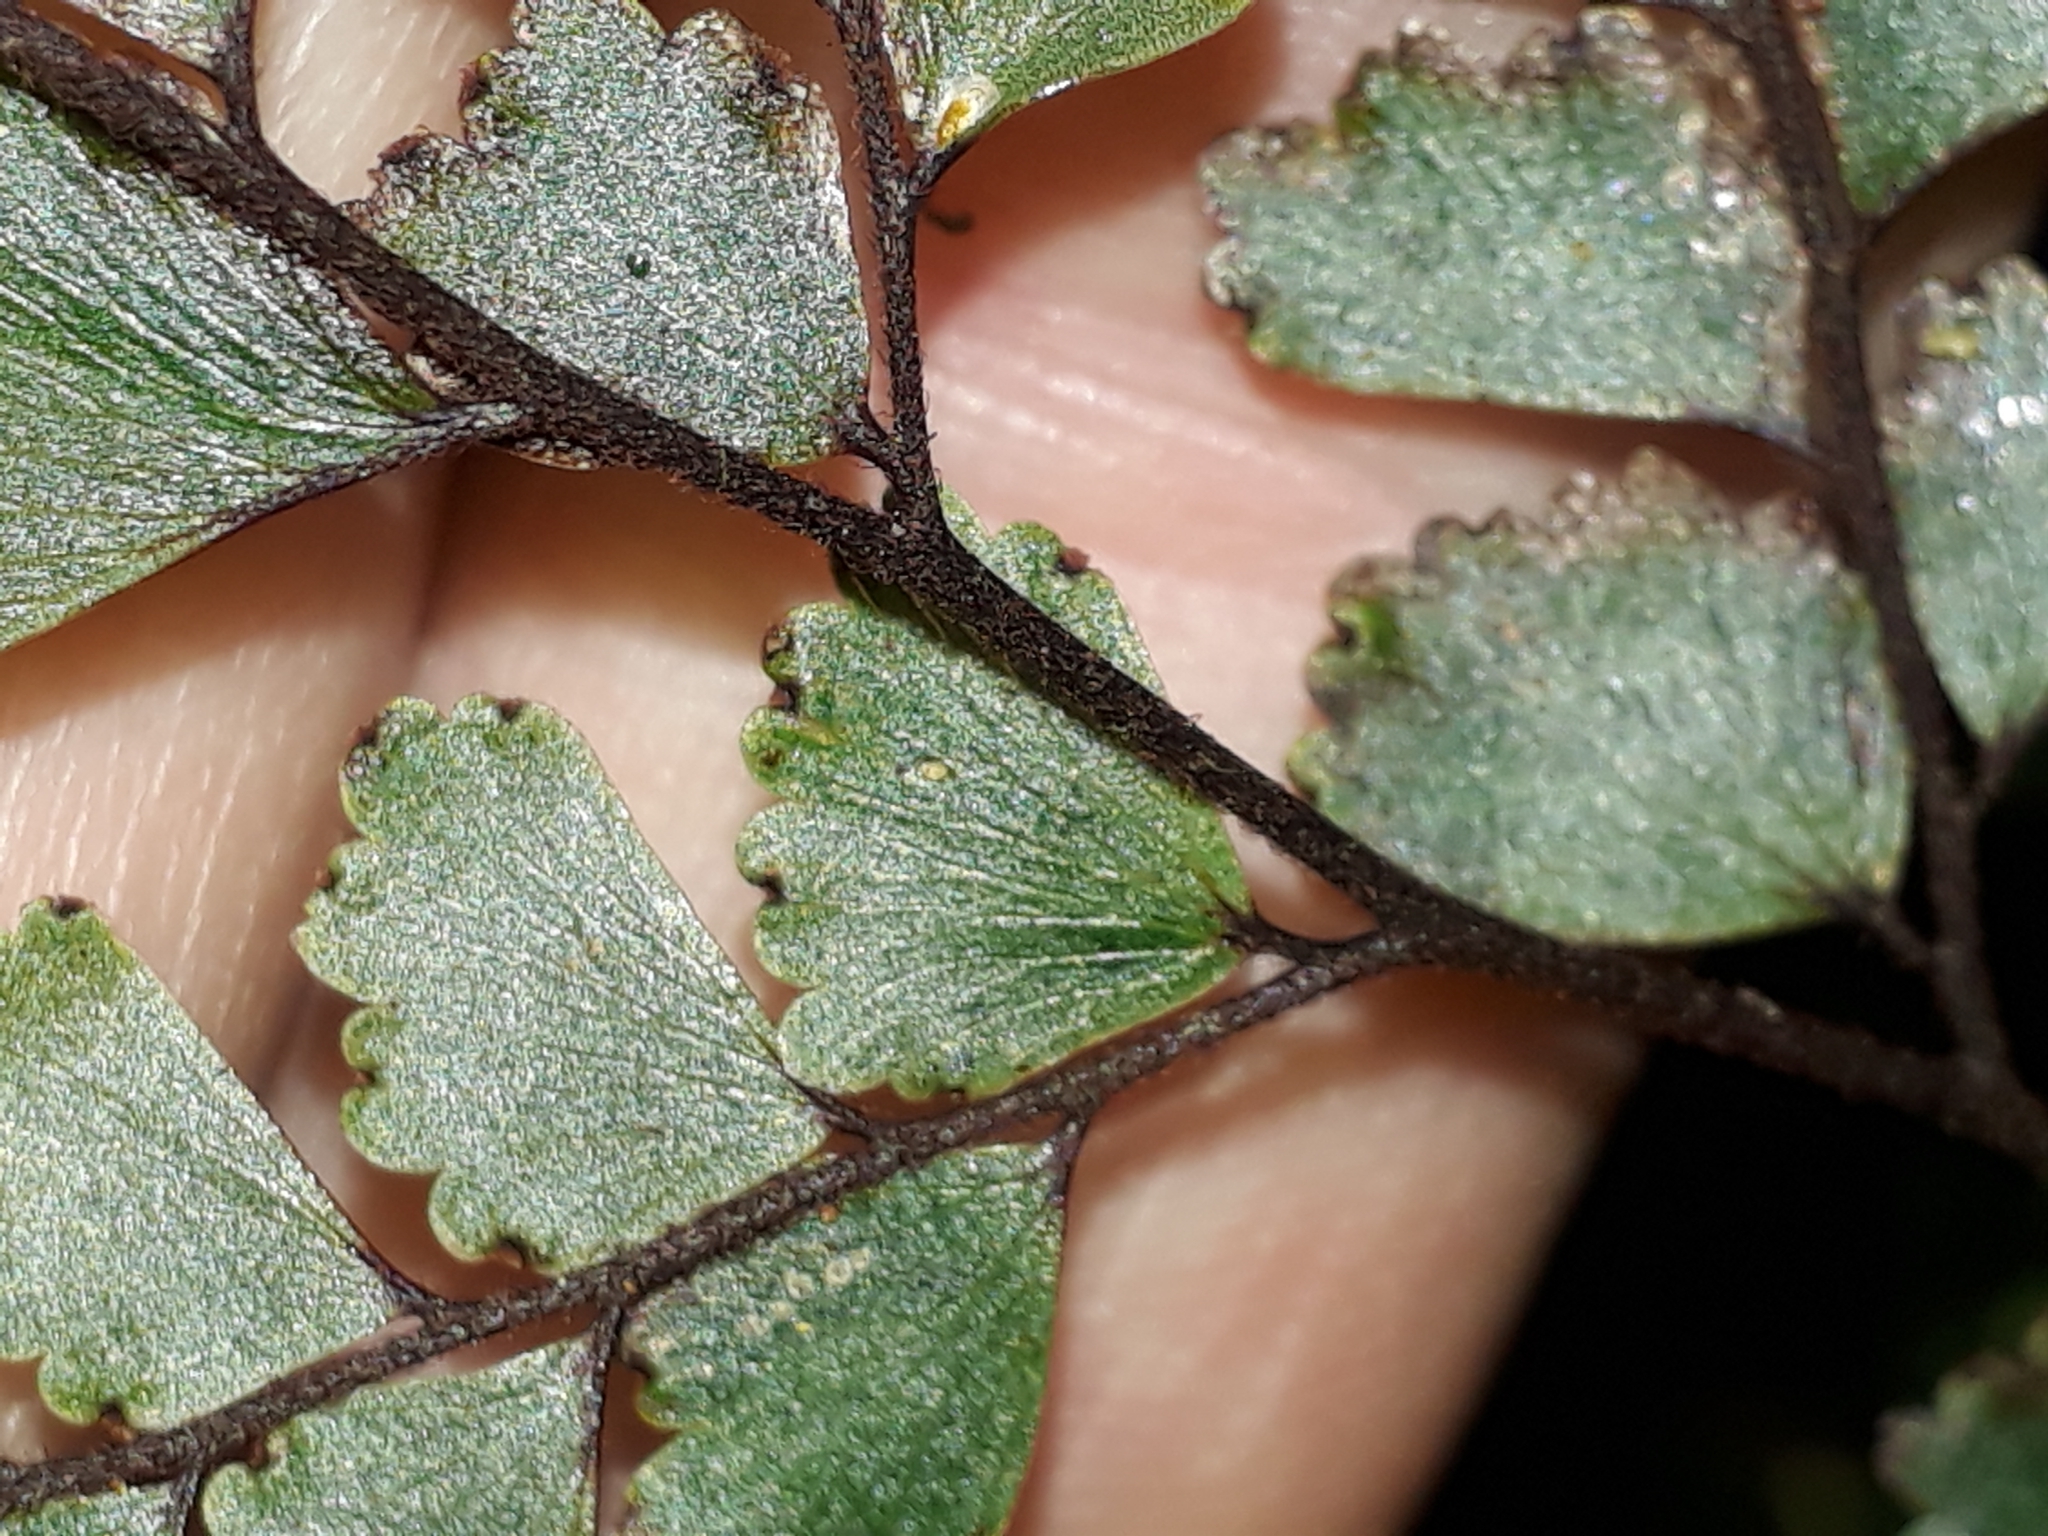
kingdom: Plantae
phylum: Tracheophyta
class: Polypodiopsida
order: Polypodiales
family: Pteridaceae
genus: Adiantum
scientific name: Adiantum fulvum
